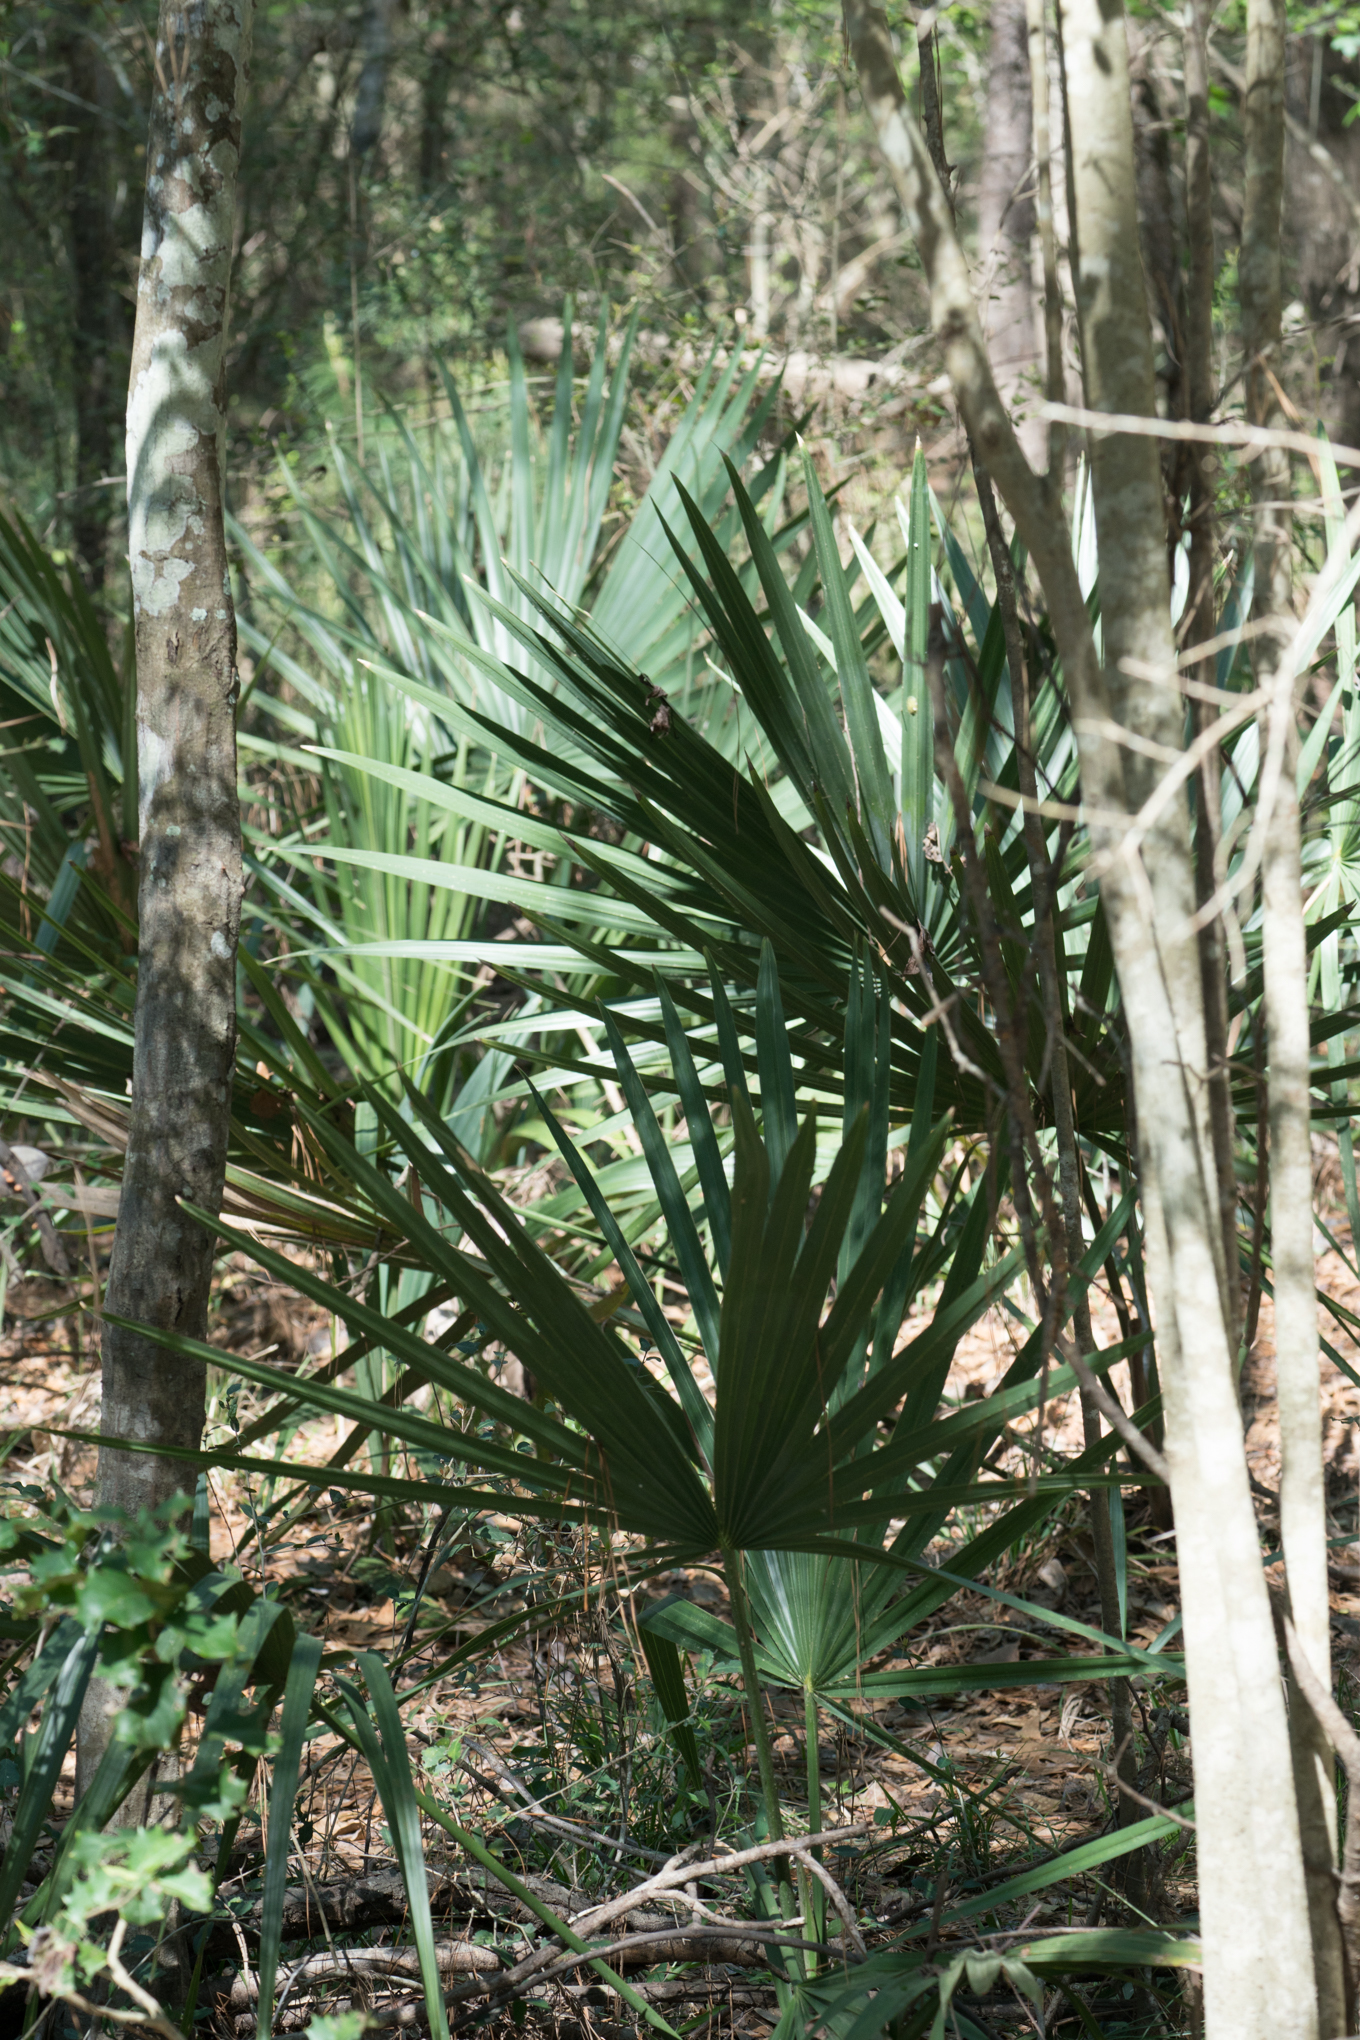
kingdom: Plantae
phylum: Tracheophyta
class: Liliopsida
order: Arecales
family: Arecaceae
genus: Sabal
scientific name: Sabal minor
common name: Dwarf palmetto
